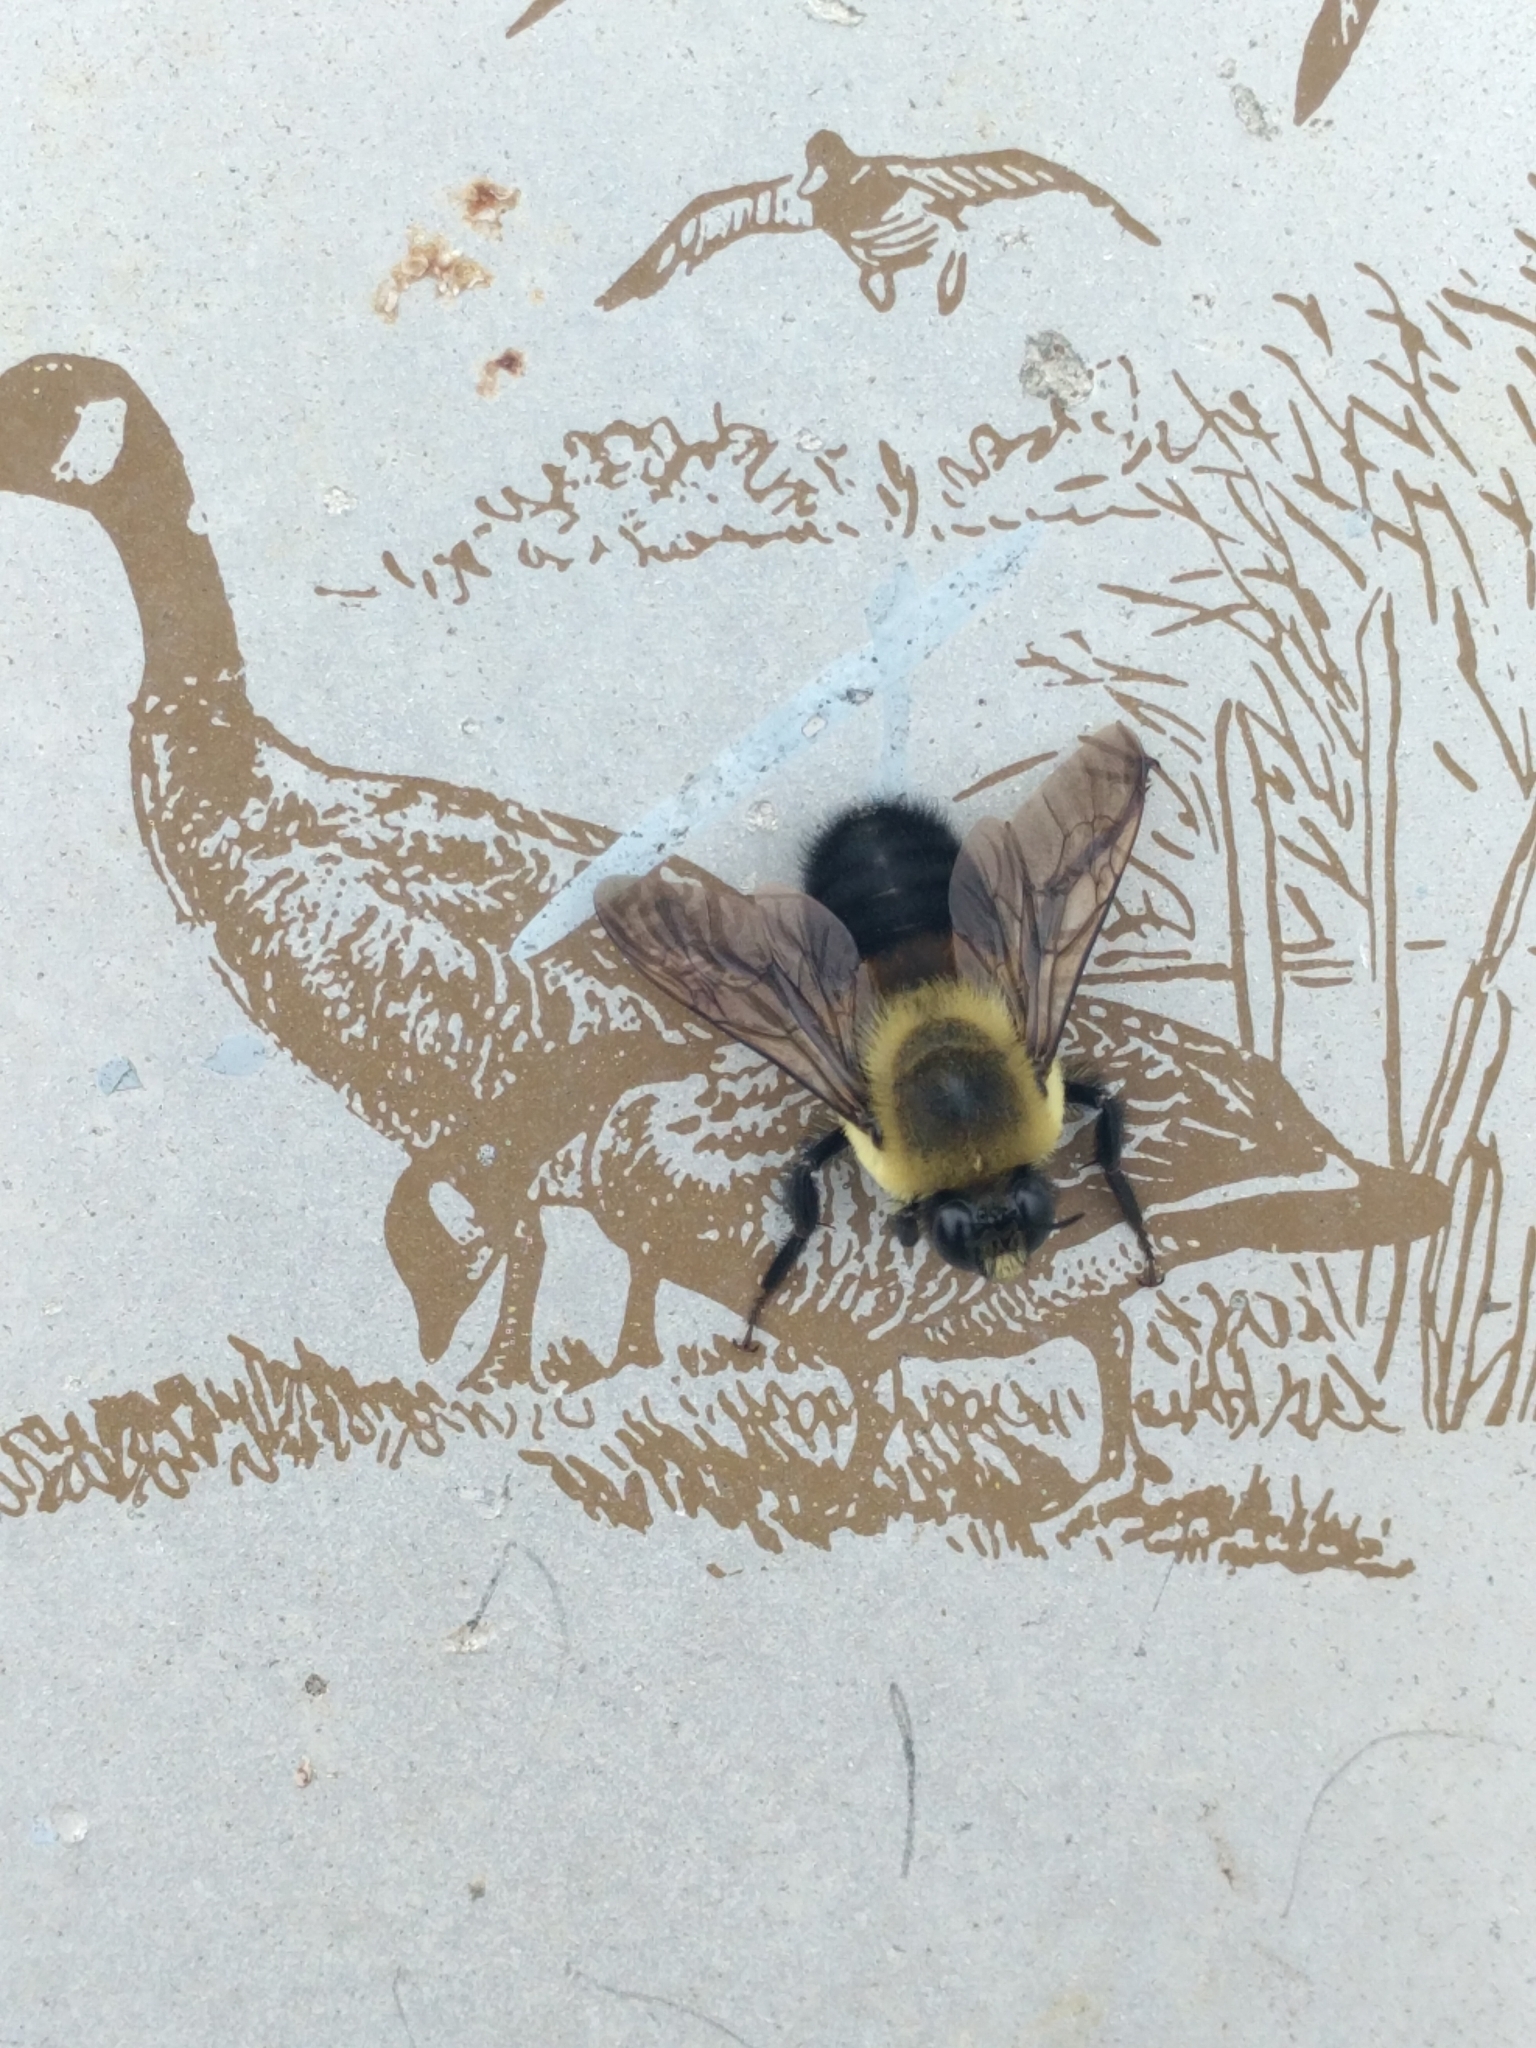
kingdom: Animalia
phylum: Arthropoda
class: Insecta
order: Hymenoptera
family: Apidae
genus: Bombus
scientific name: Bombus griseocollis
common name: Brown-belted bumble bee
